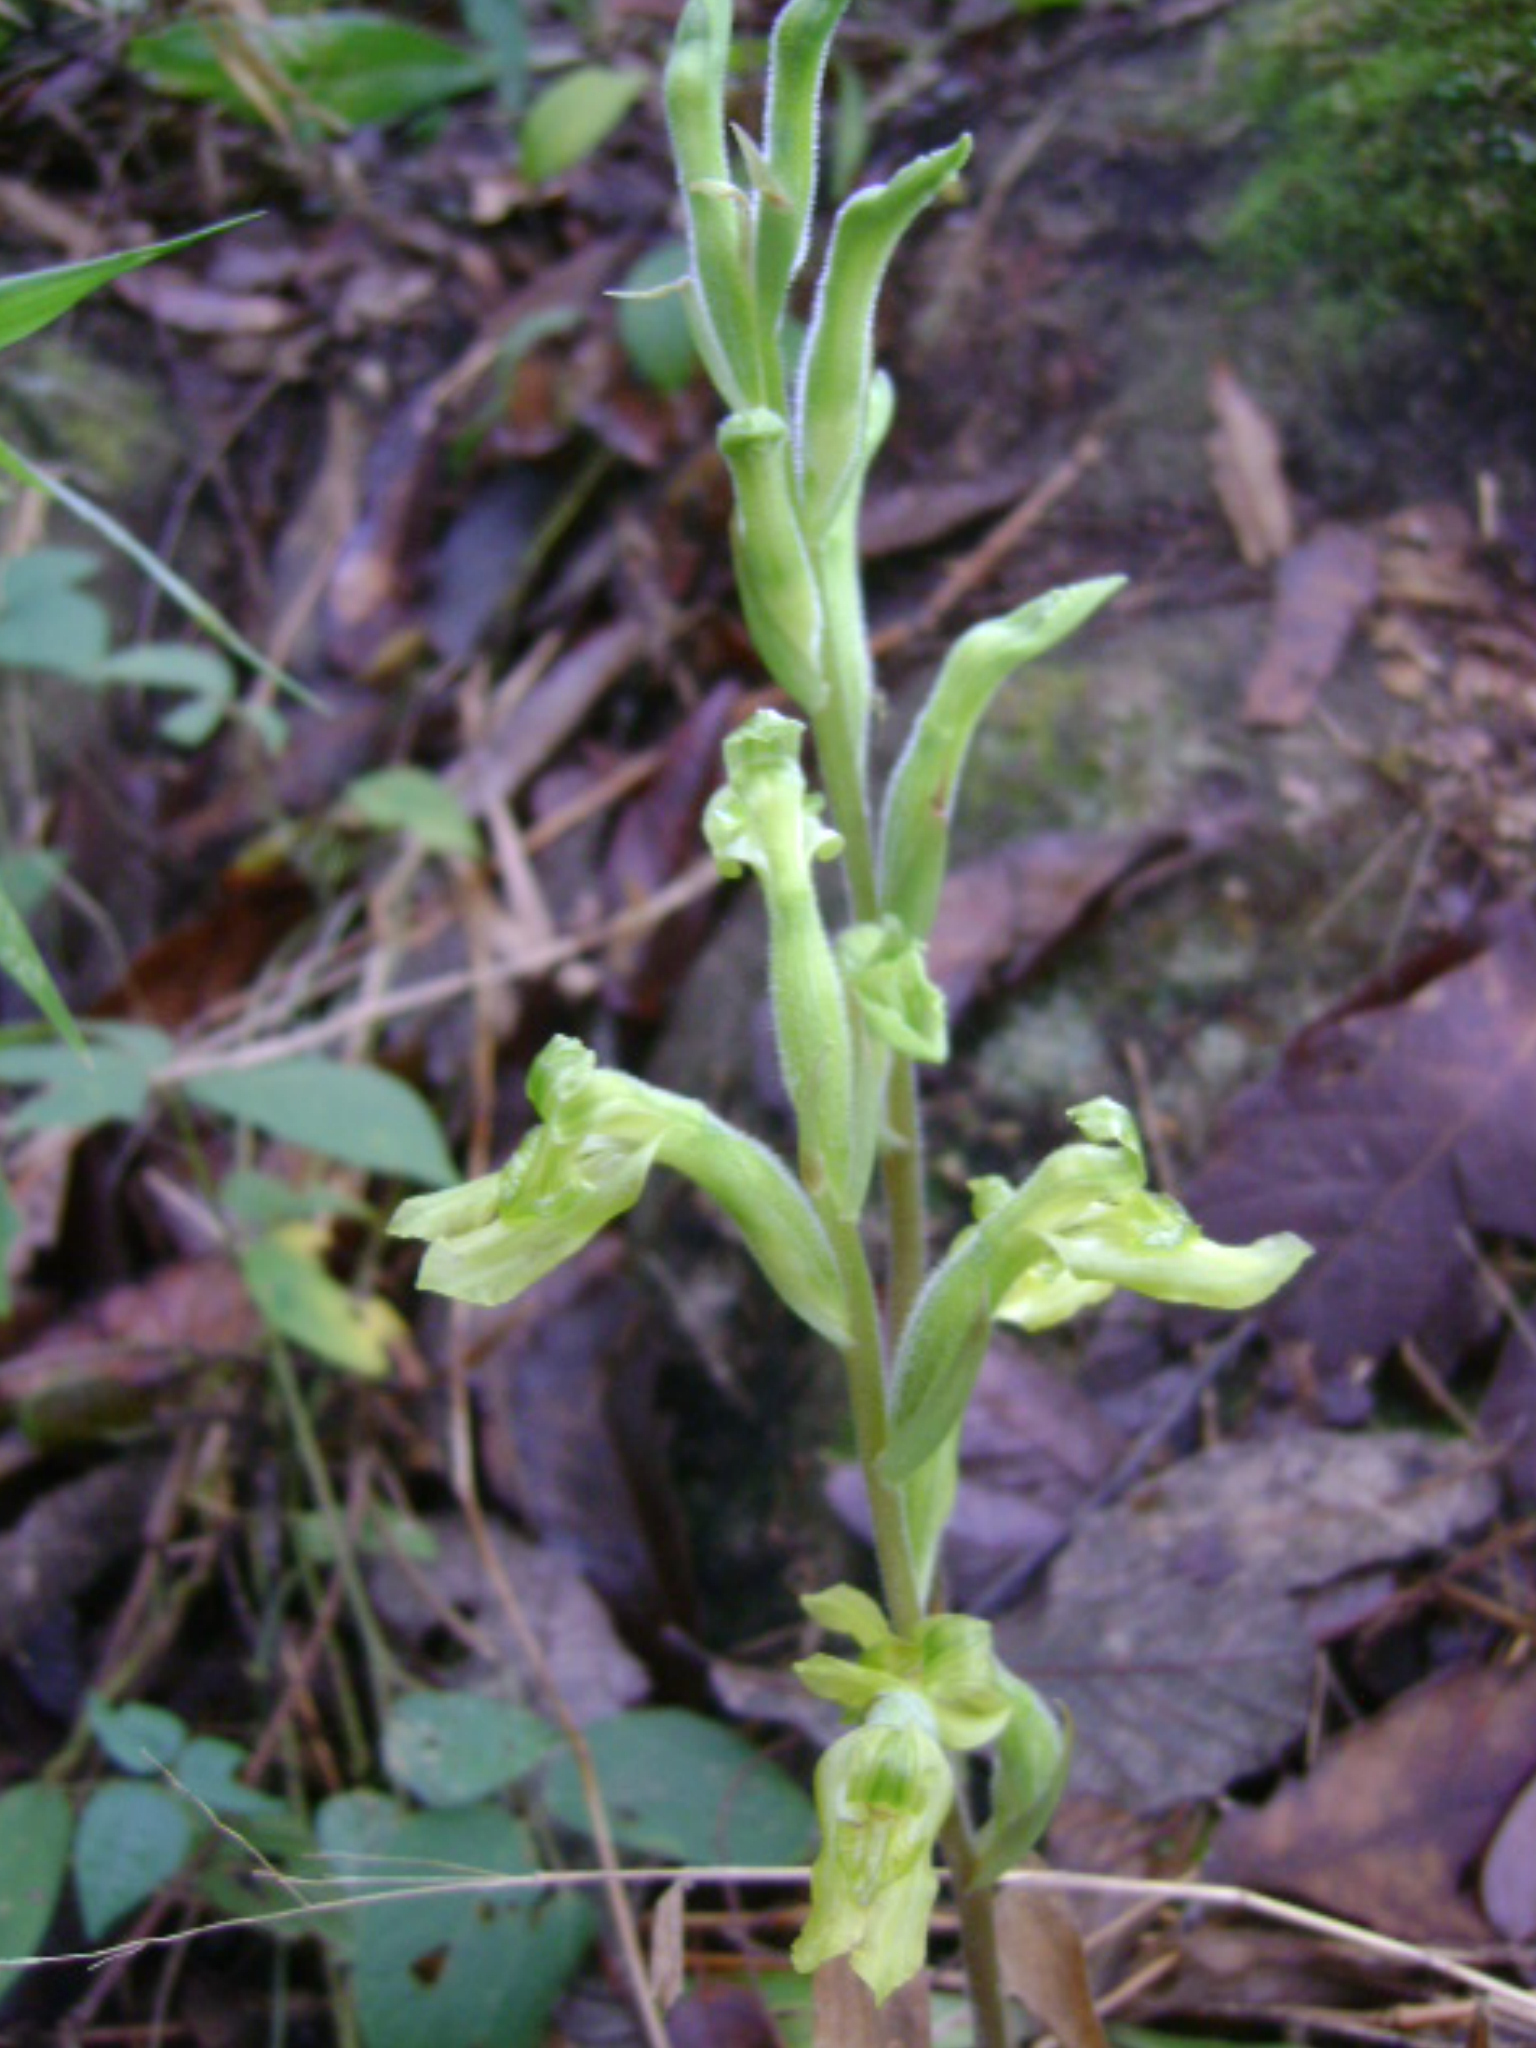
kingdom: Plantae
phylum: Tracheophyta
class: Liliopsida
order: Asparagales
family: Orchidaceae
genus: Sarcoglottis
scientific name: Sarcoglottis sceptrodes
